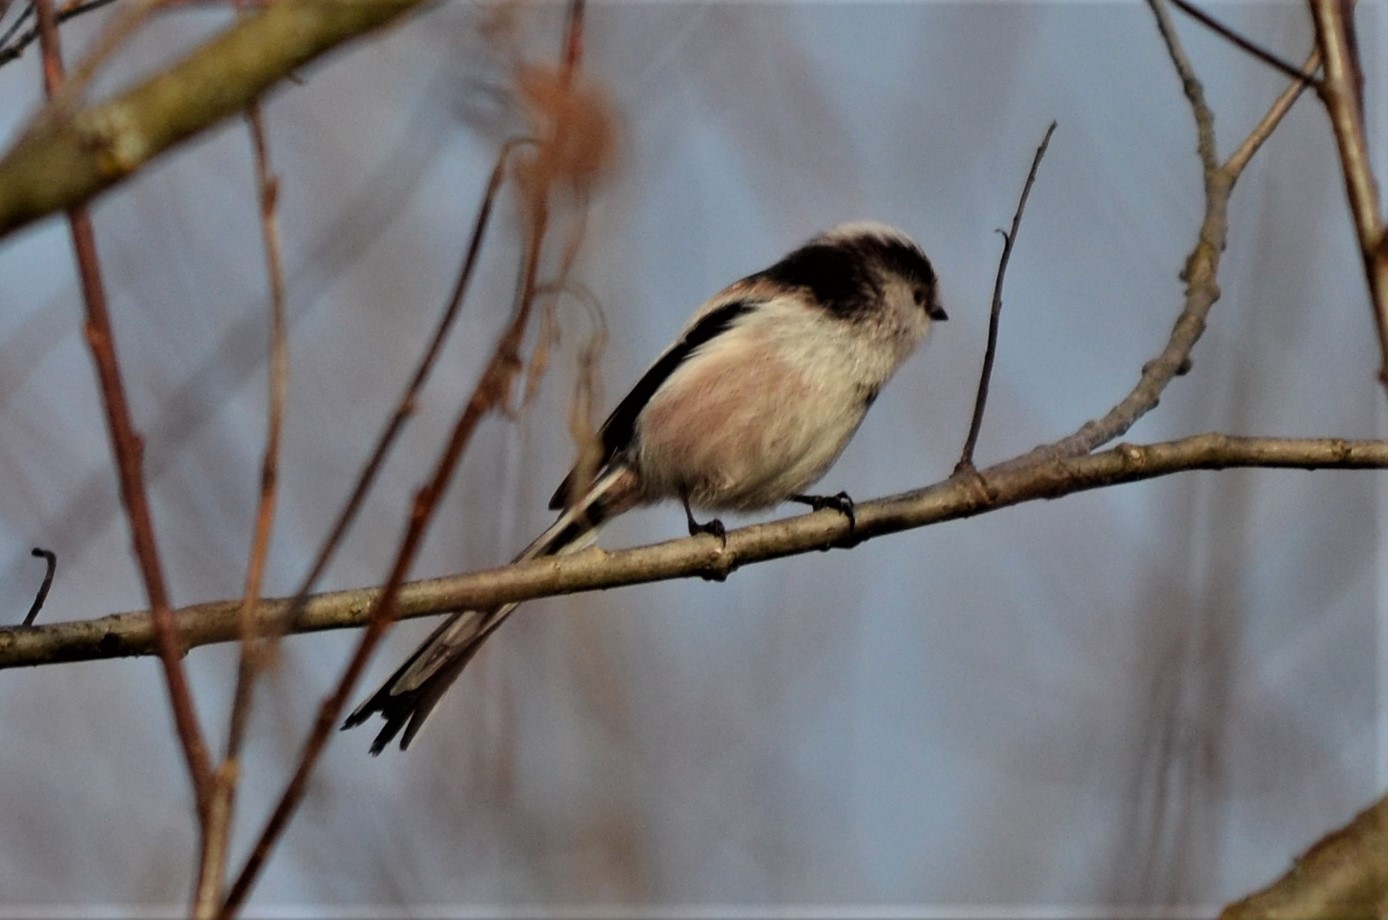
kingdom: Animalia
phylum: Chordata
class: Aves
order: Passeriformes
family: Aegithalidae
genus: Aegithalos
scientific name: Aegithalos caudatus
